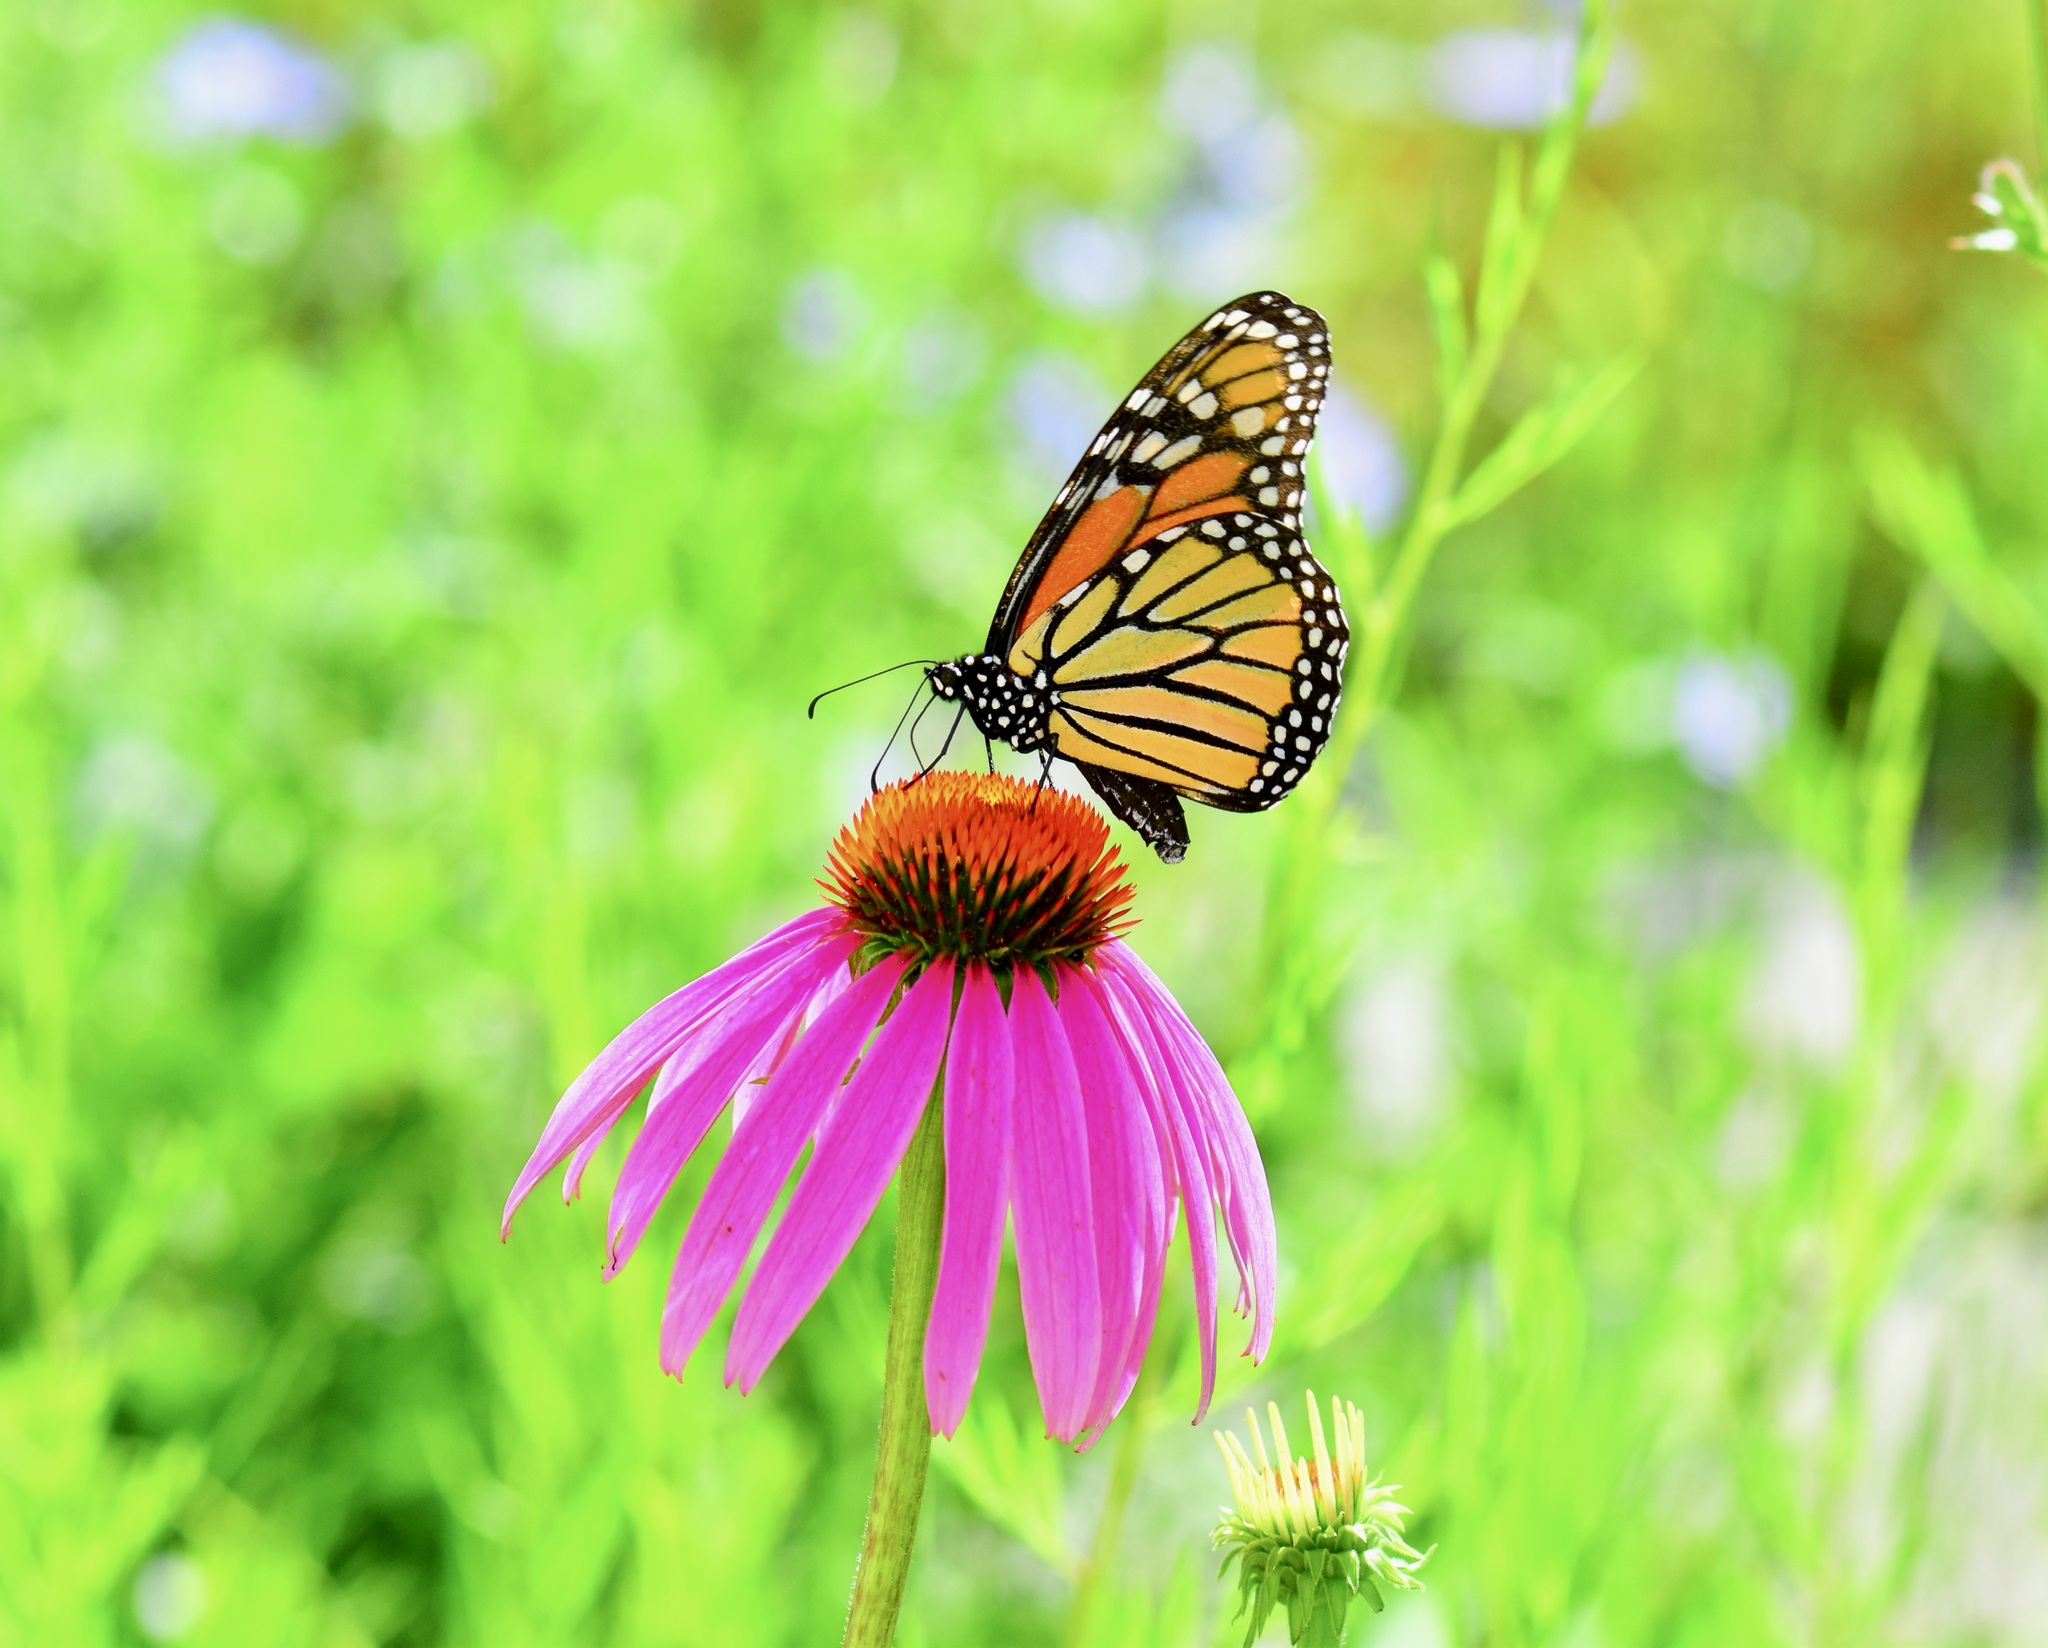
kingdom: Animalia
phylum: Arthropoda
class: Insecta
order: Lepidoptera
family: Nymphalidae
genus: Danaus
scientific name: Danaus plexippus
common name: Monarch
